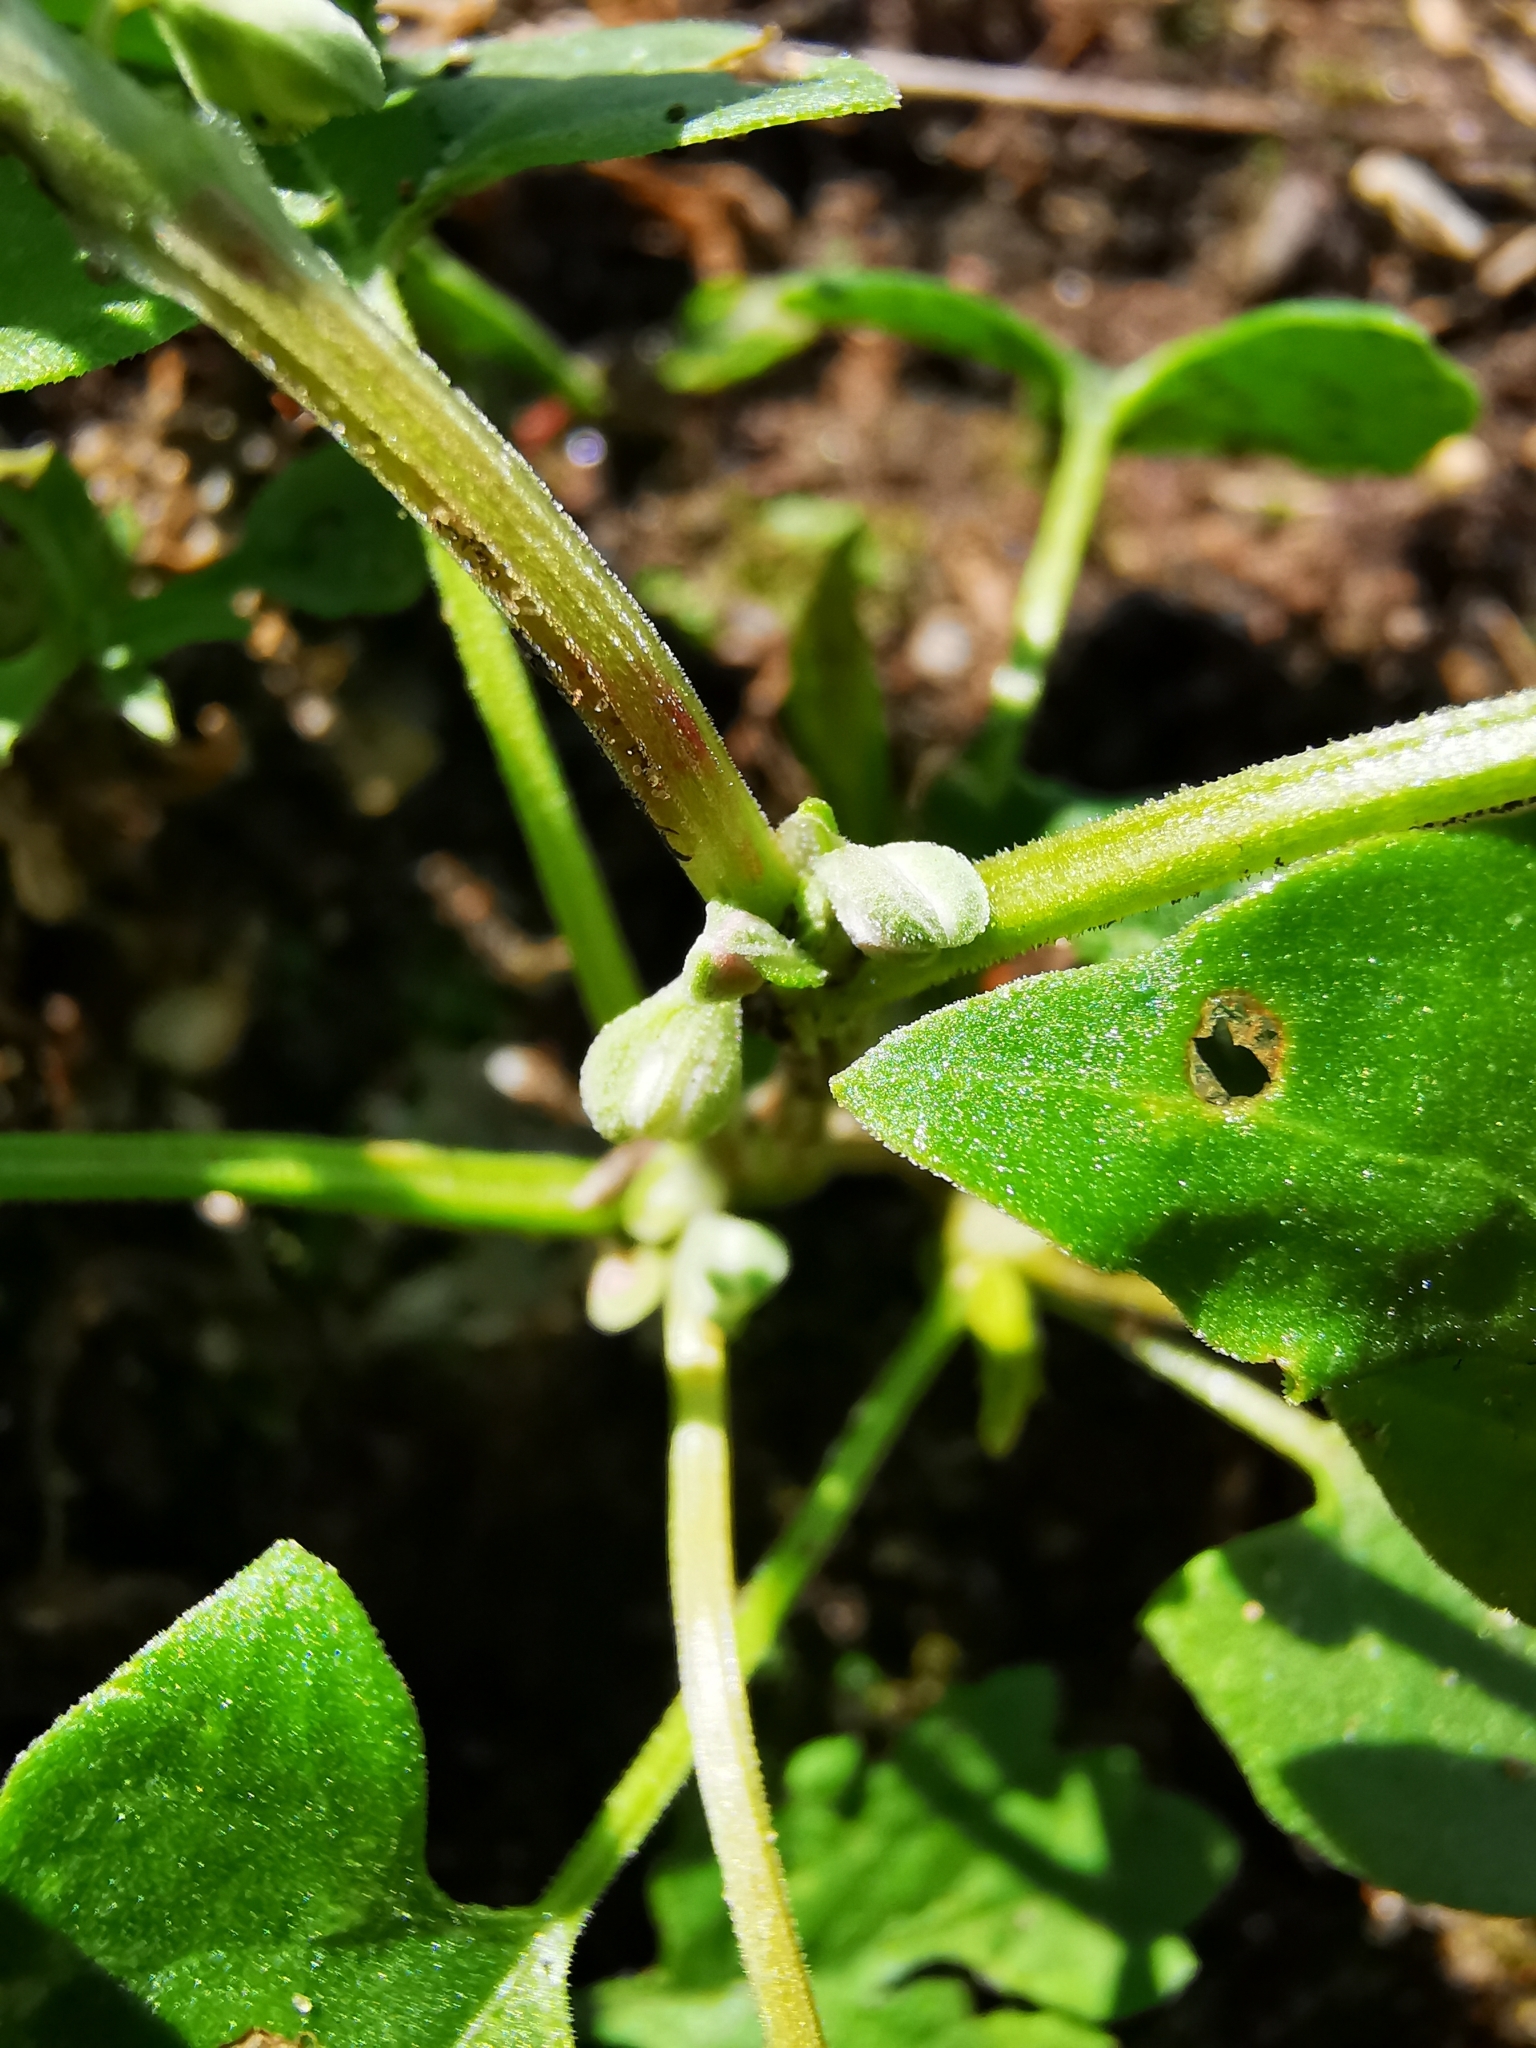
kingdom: Plantae
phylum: Tracheophyta
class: Magnoliopsida
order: Caryophyllales
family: Polygonaceae
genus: Fallopia
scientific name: Fallopia convolvulus
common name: Black bindweed
